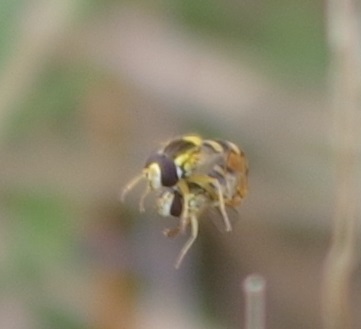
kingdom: Animalia
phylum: Arthropoda
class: Insecta
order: Diptera
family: Syrphidae
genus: Sphaerophoria
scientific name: Sphaerophoria
